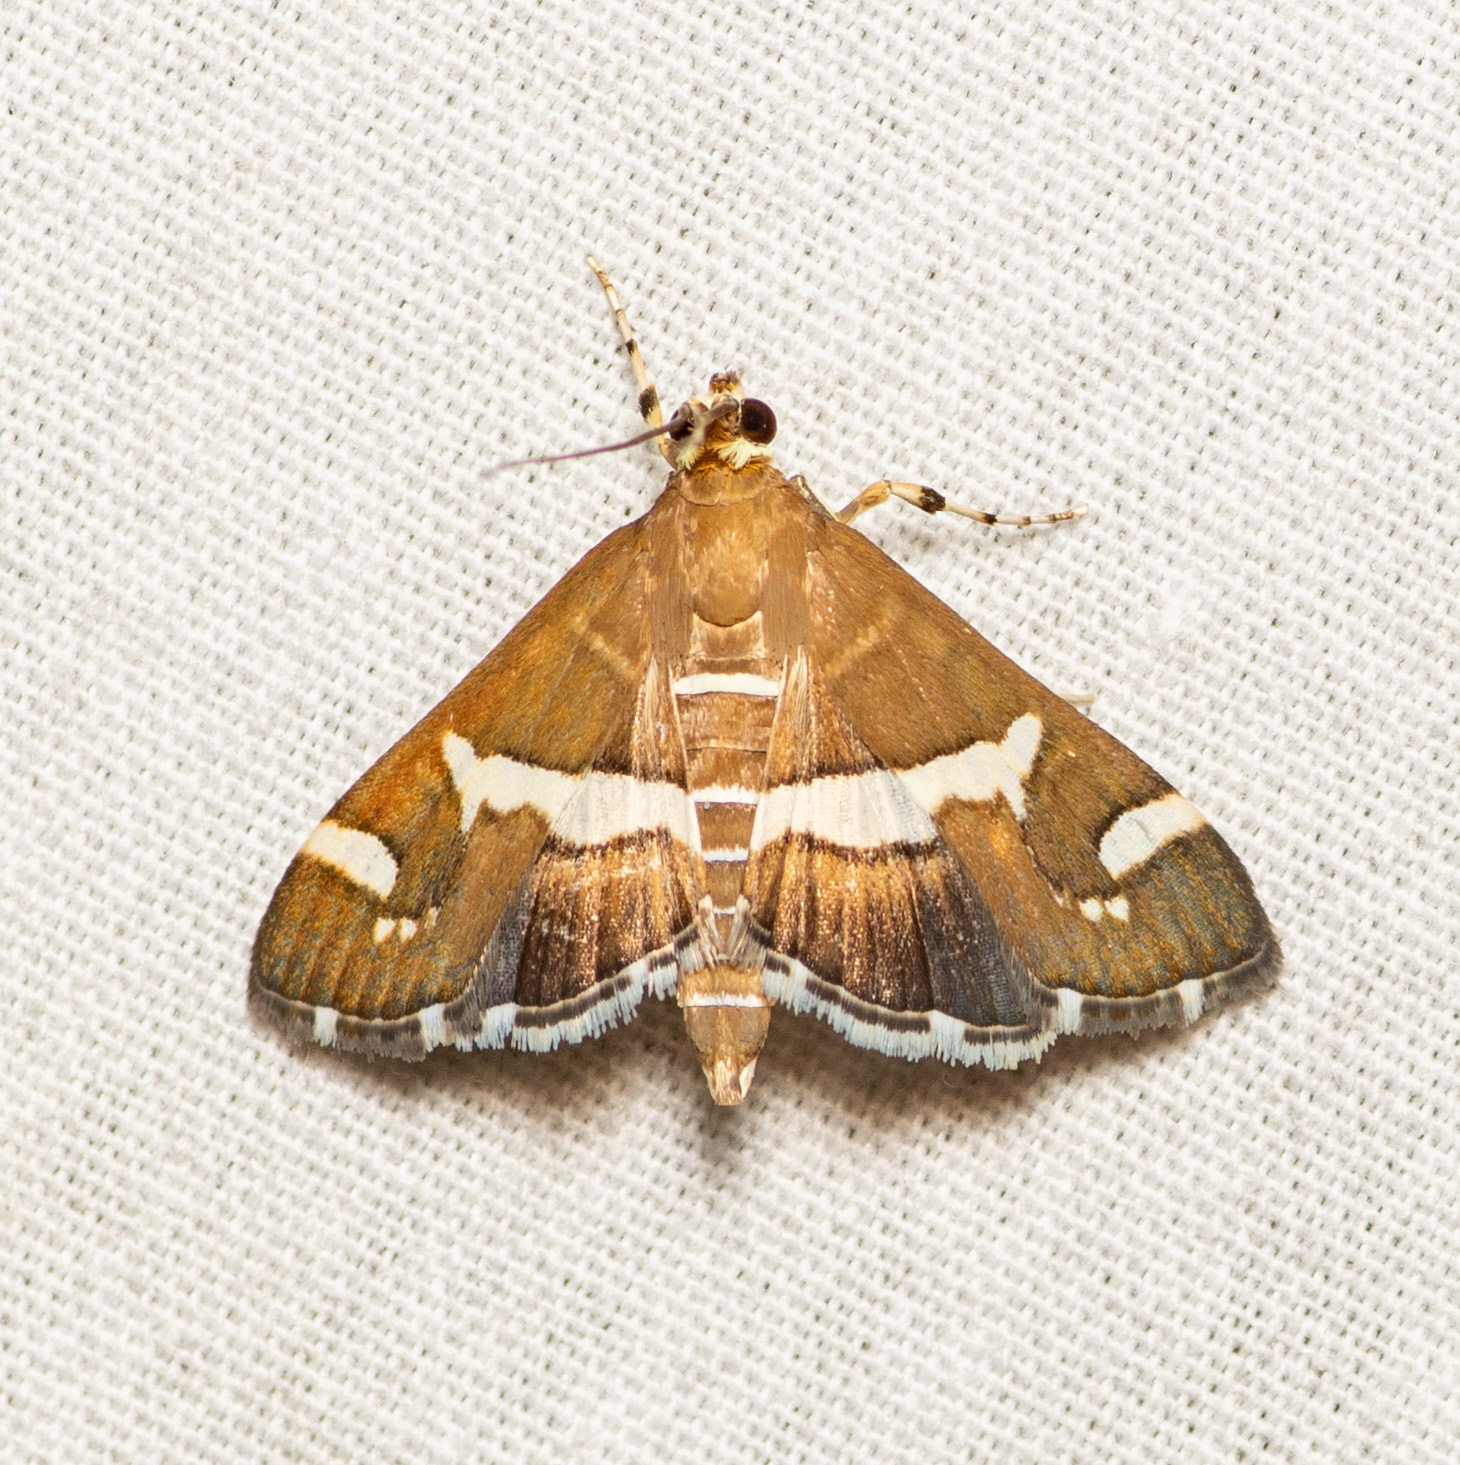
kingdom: Animalia
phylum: Arthropoda
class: Insecta
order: Lepidoptera
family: Crambidae
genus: Spoladea
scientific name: Spoladea recurvalis
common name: Beet webworm moth
